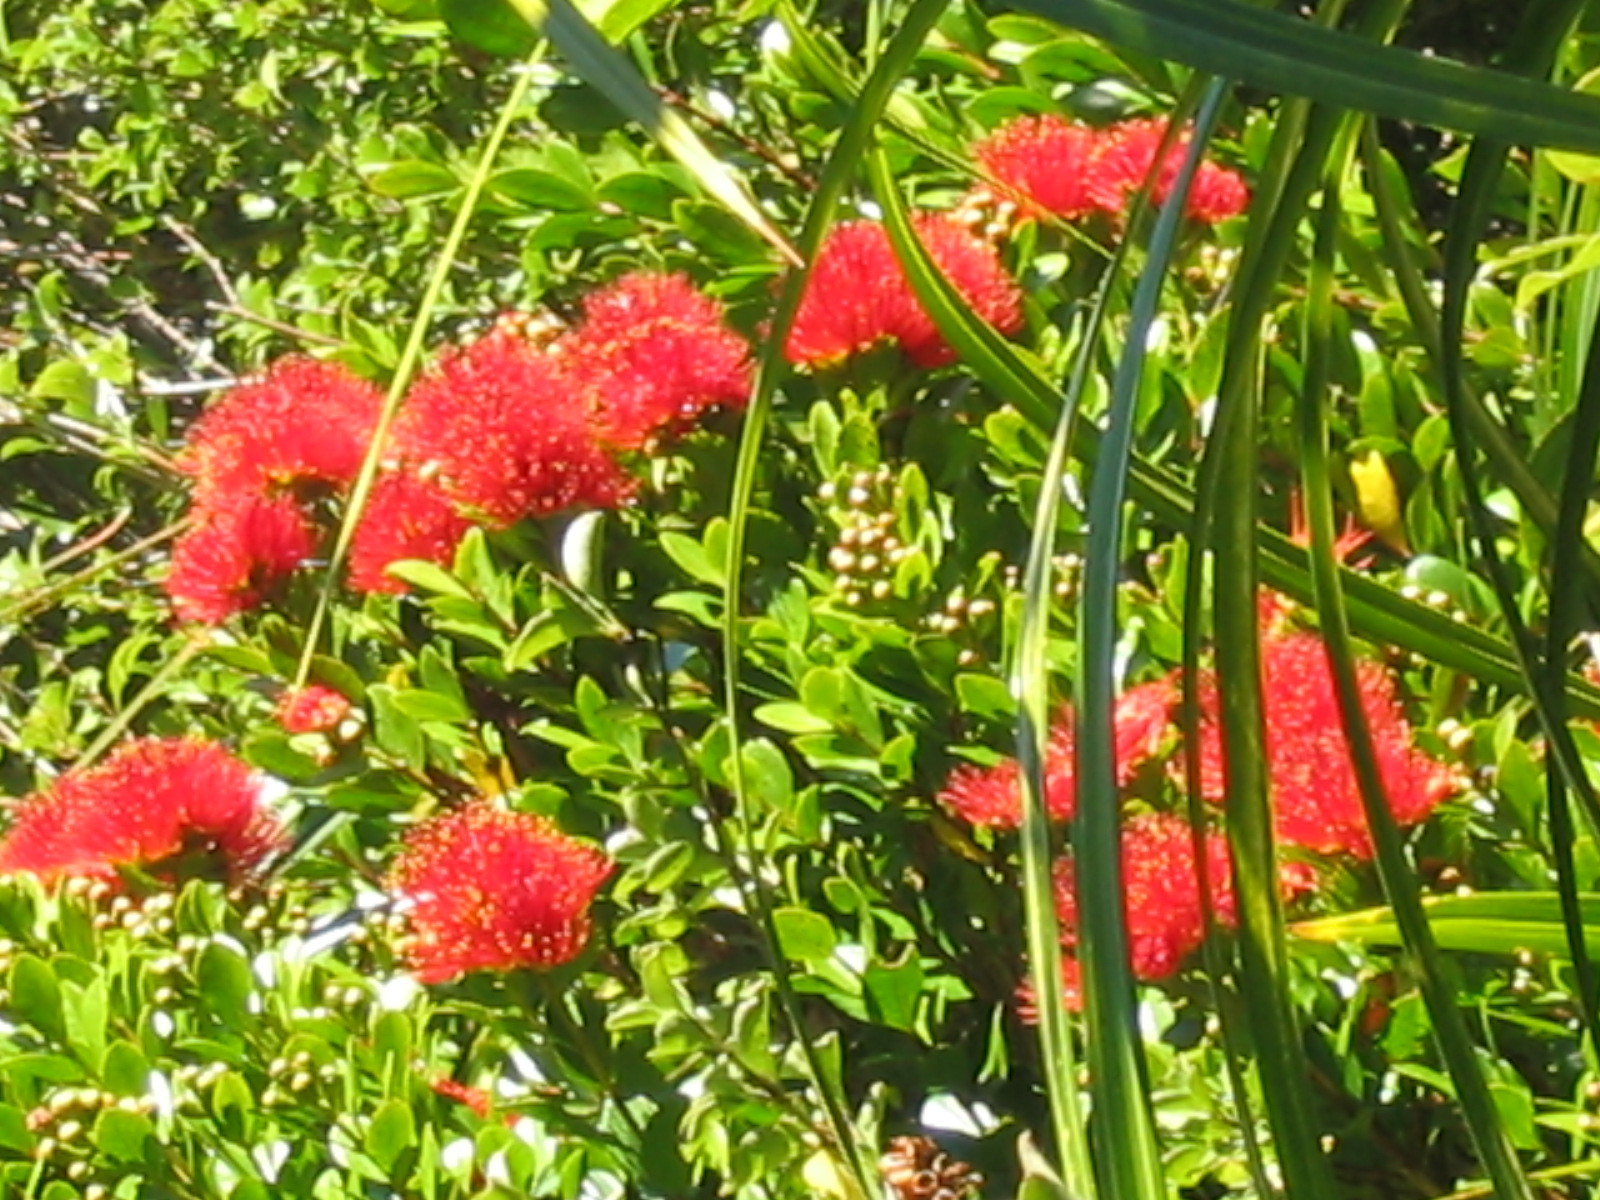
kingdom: Plantae
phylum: Tracheophyta
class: Magnoliopsida
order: Myrtales
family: Myrtaceae
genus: Metrosideros
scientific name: Metrosideros fulgens
